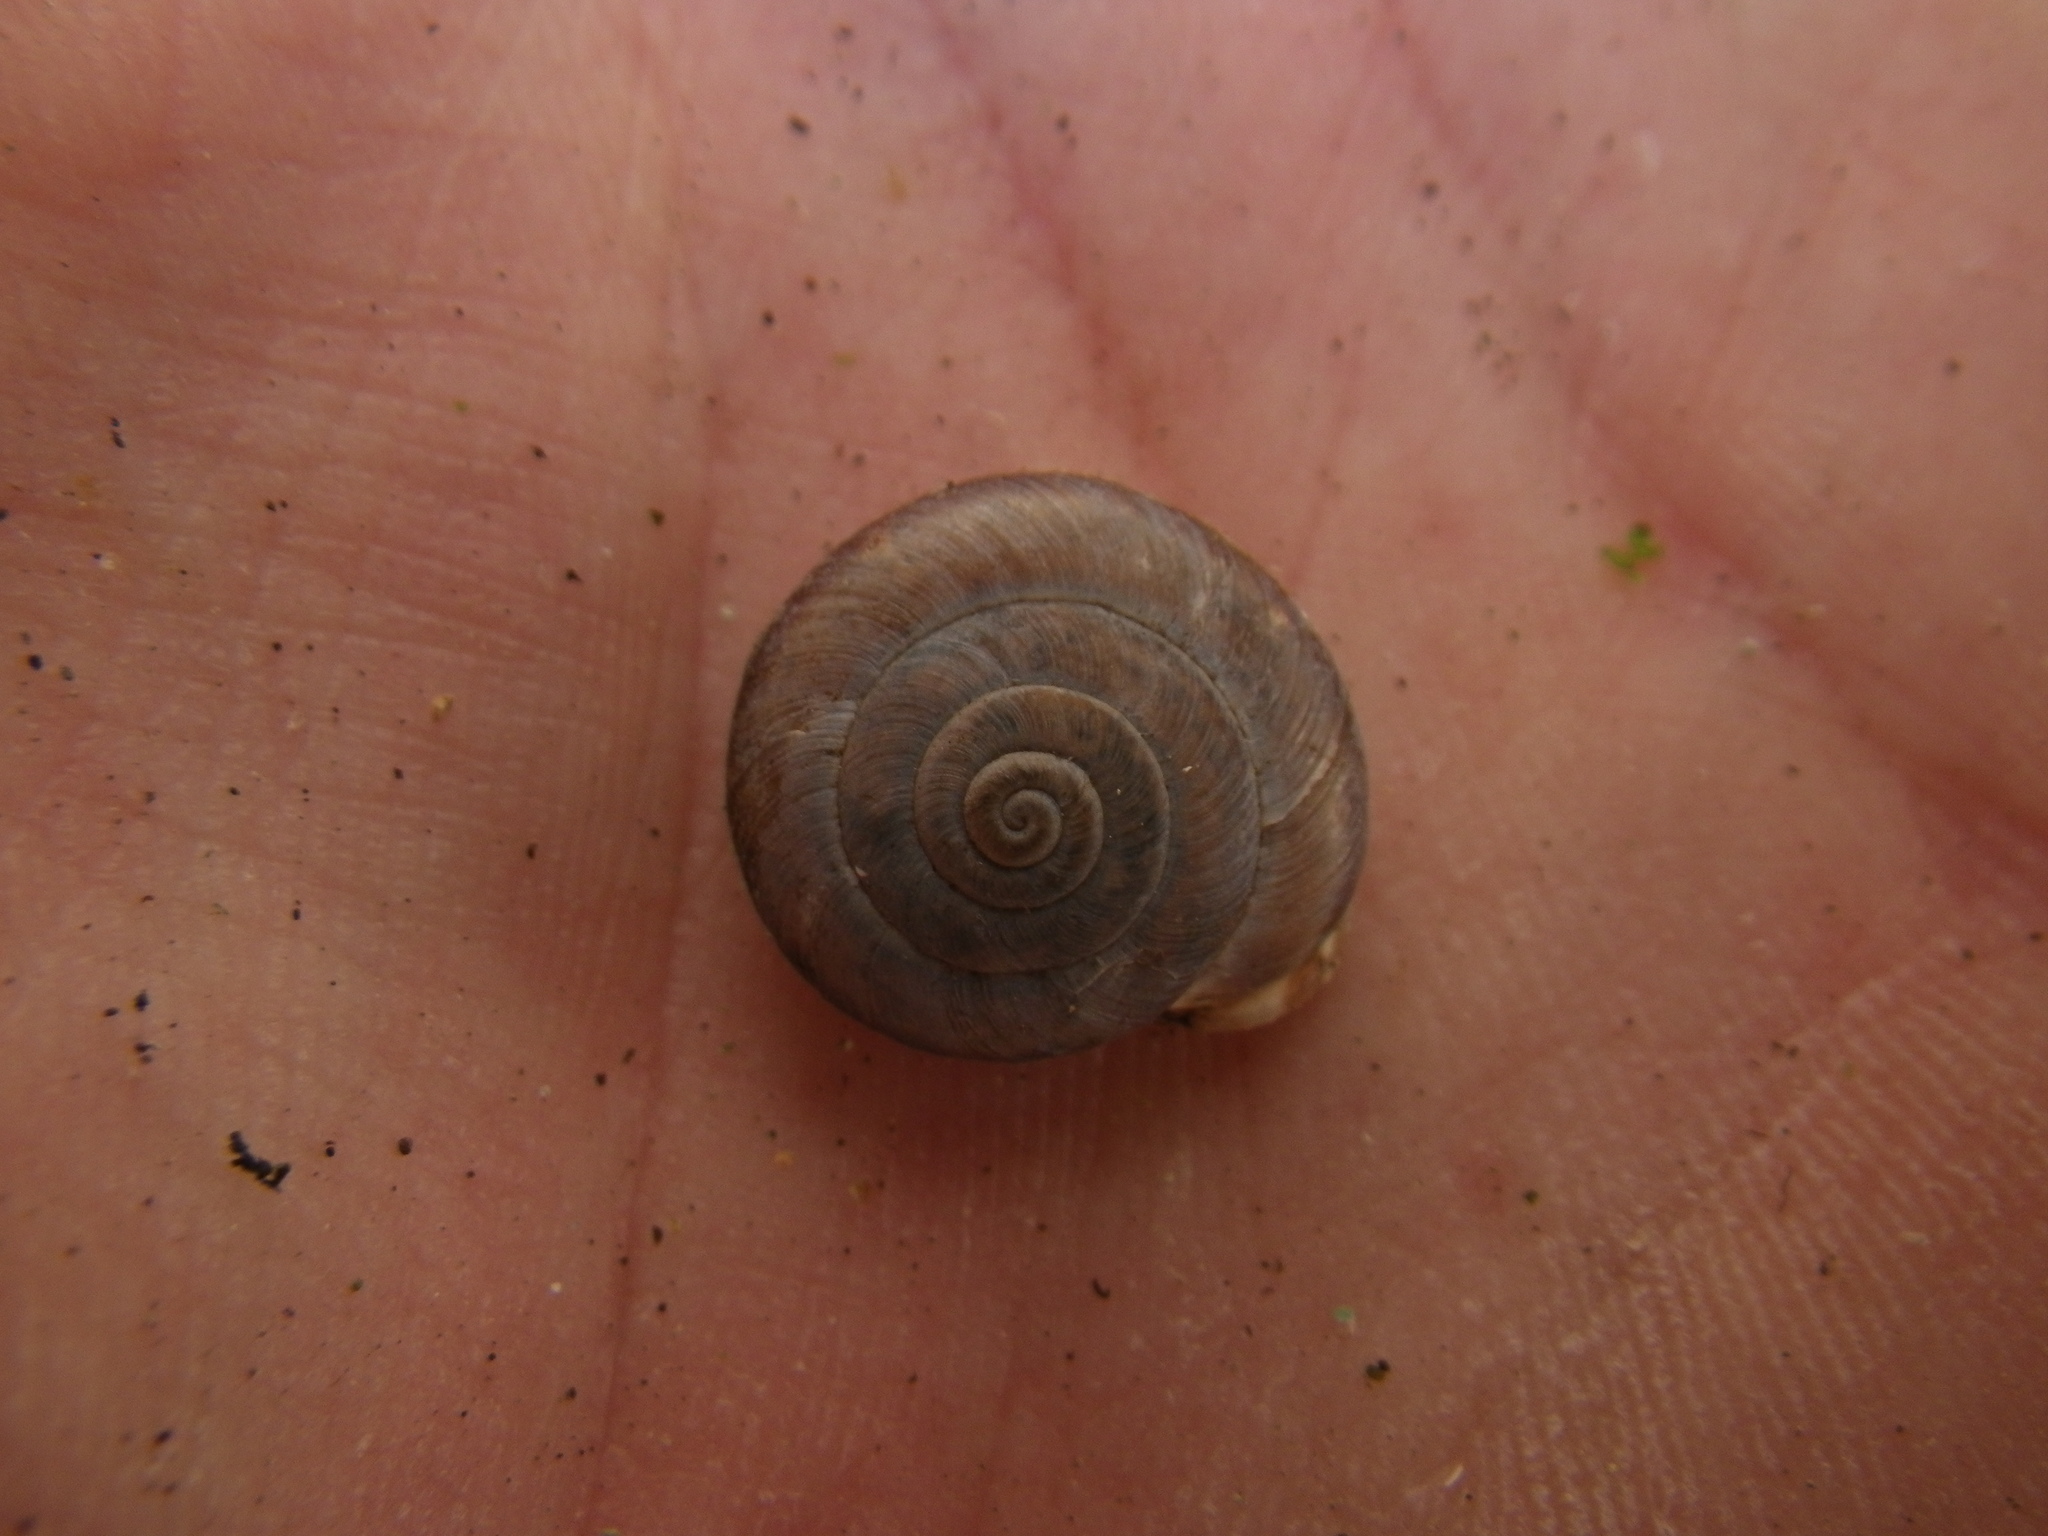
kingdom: Animalia
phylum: Mollusca
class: Gastropoda
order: Stylommatophora
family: Helicidae
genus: Corneola
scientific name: Corneola squamatina
